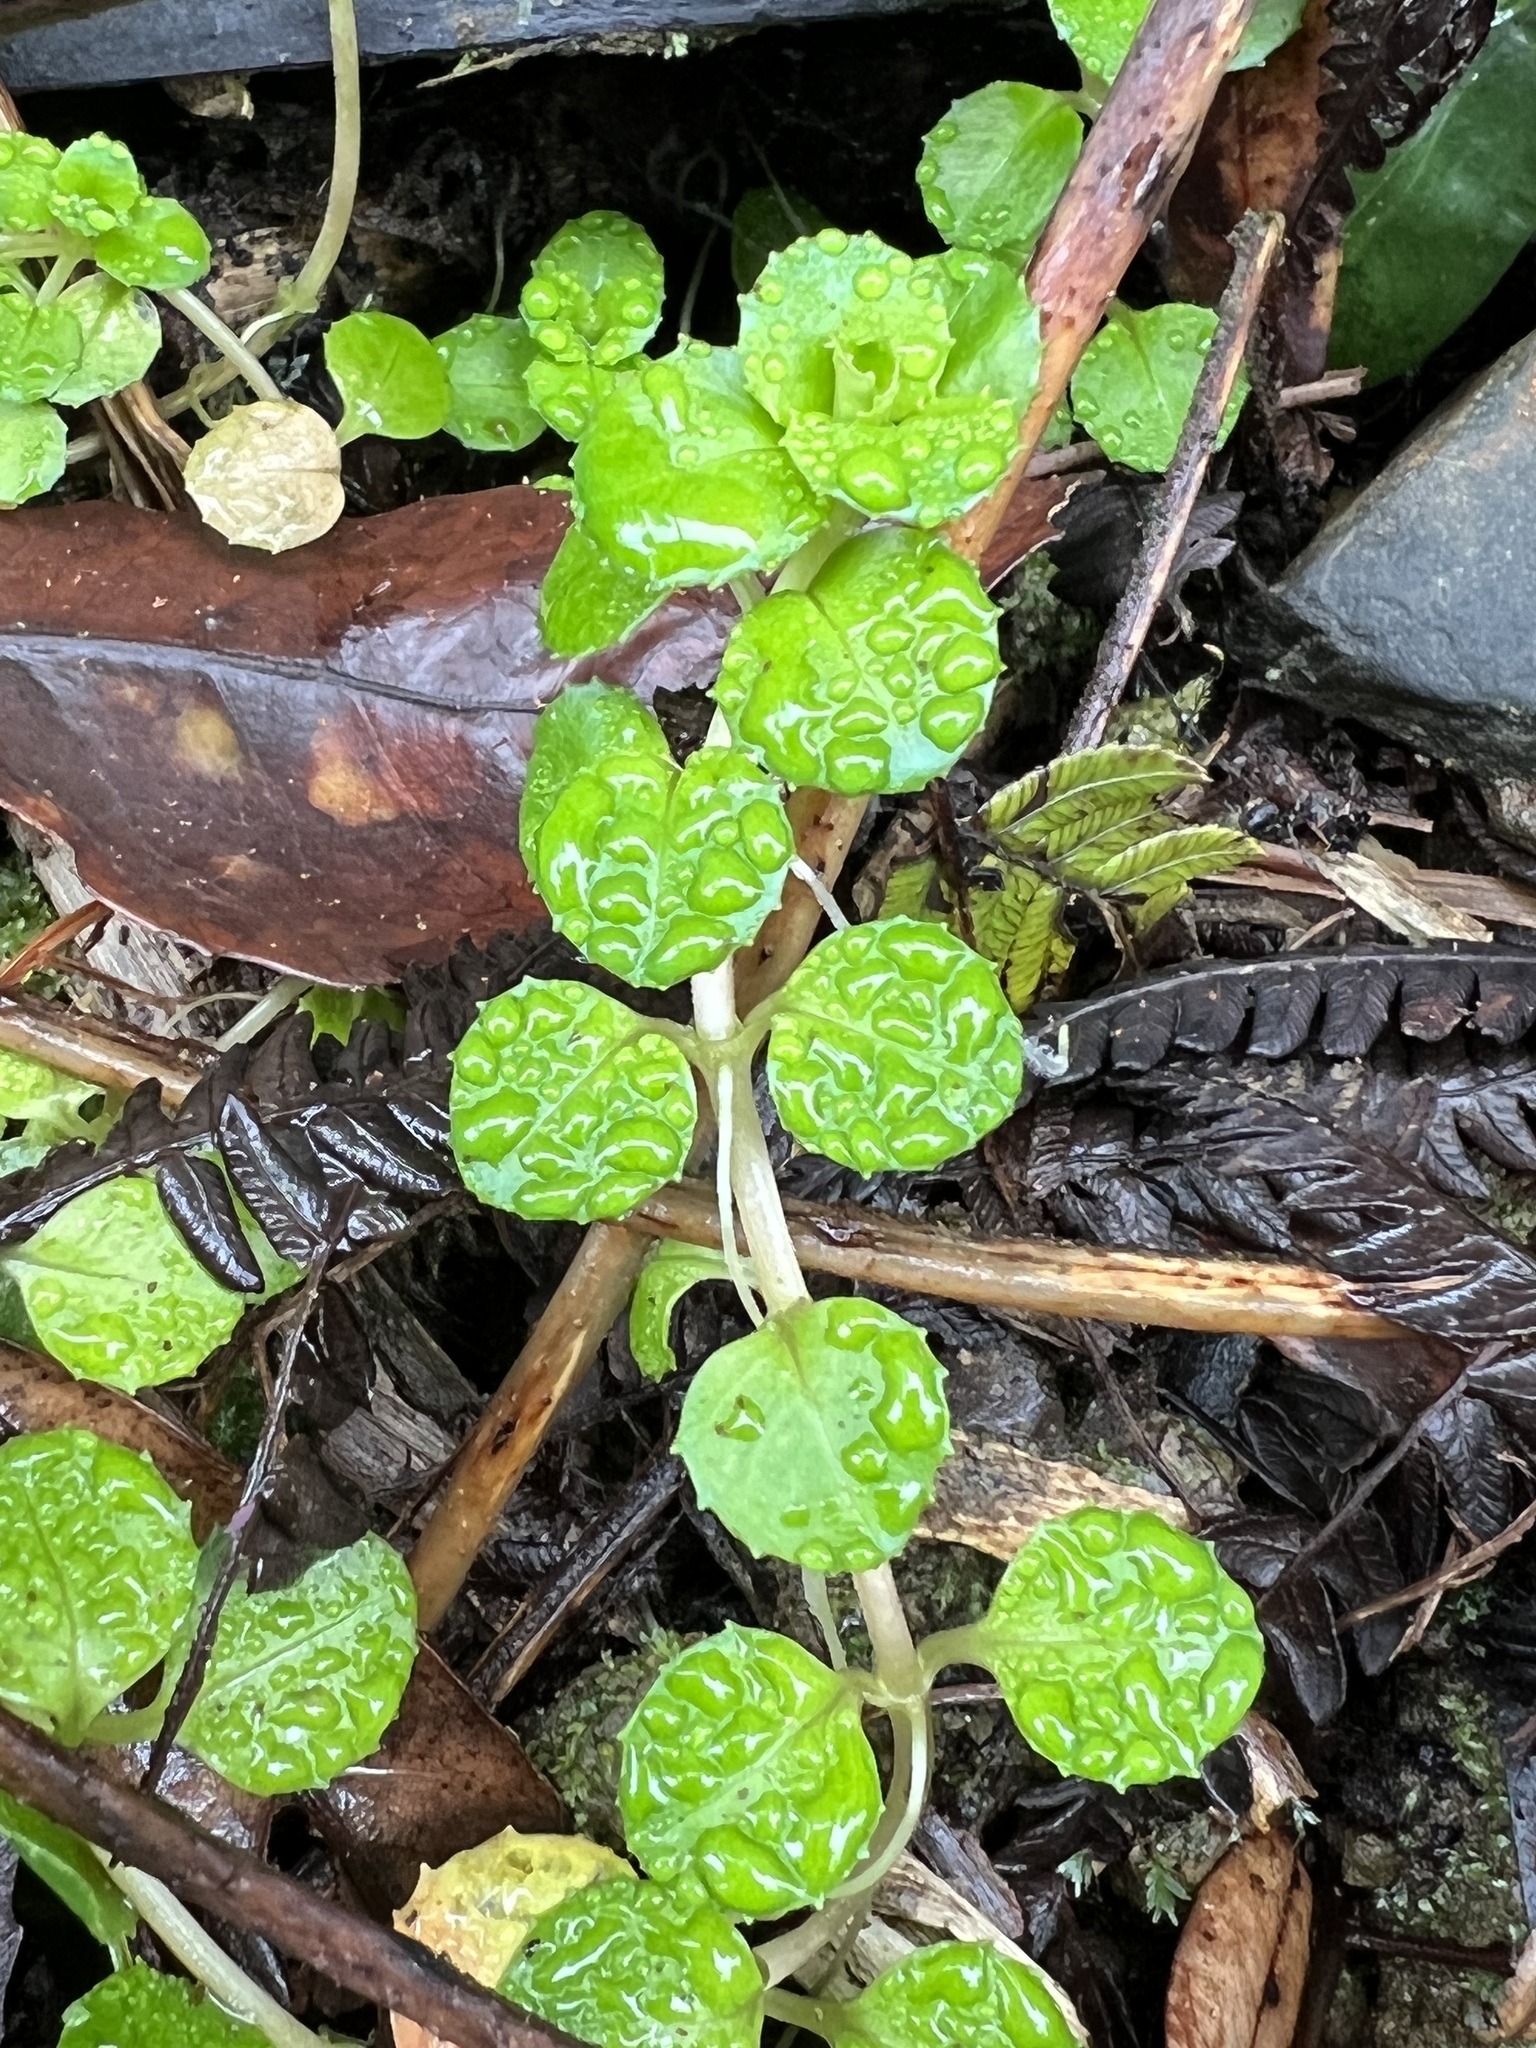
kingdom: Plantae
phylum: Tracheophyta
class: Magnoliopsida
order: Myrtales
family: Onagraceae
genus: Epilobium
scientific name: Epilobium pedunculare
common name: Rockery willowherb
